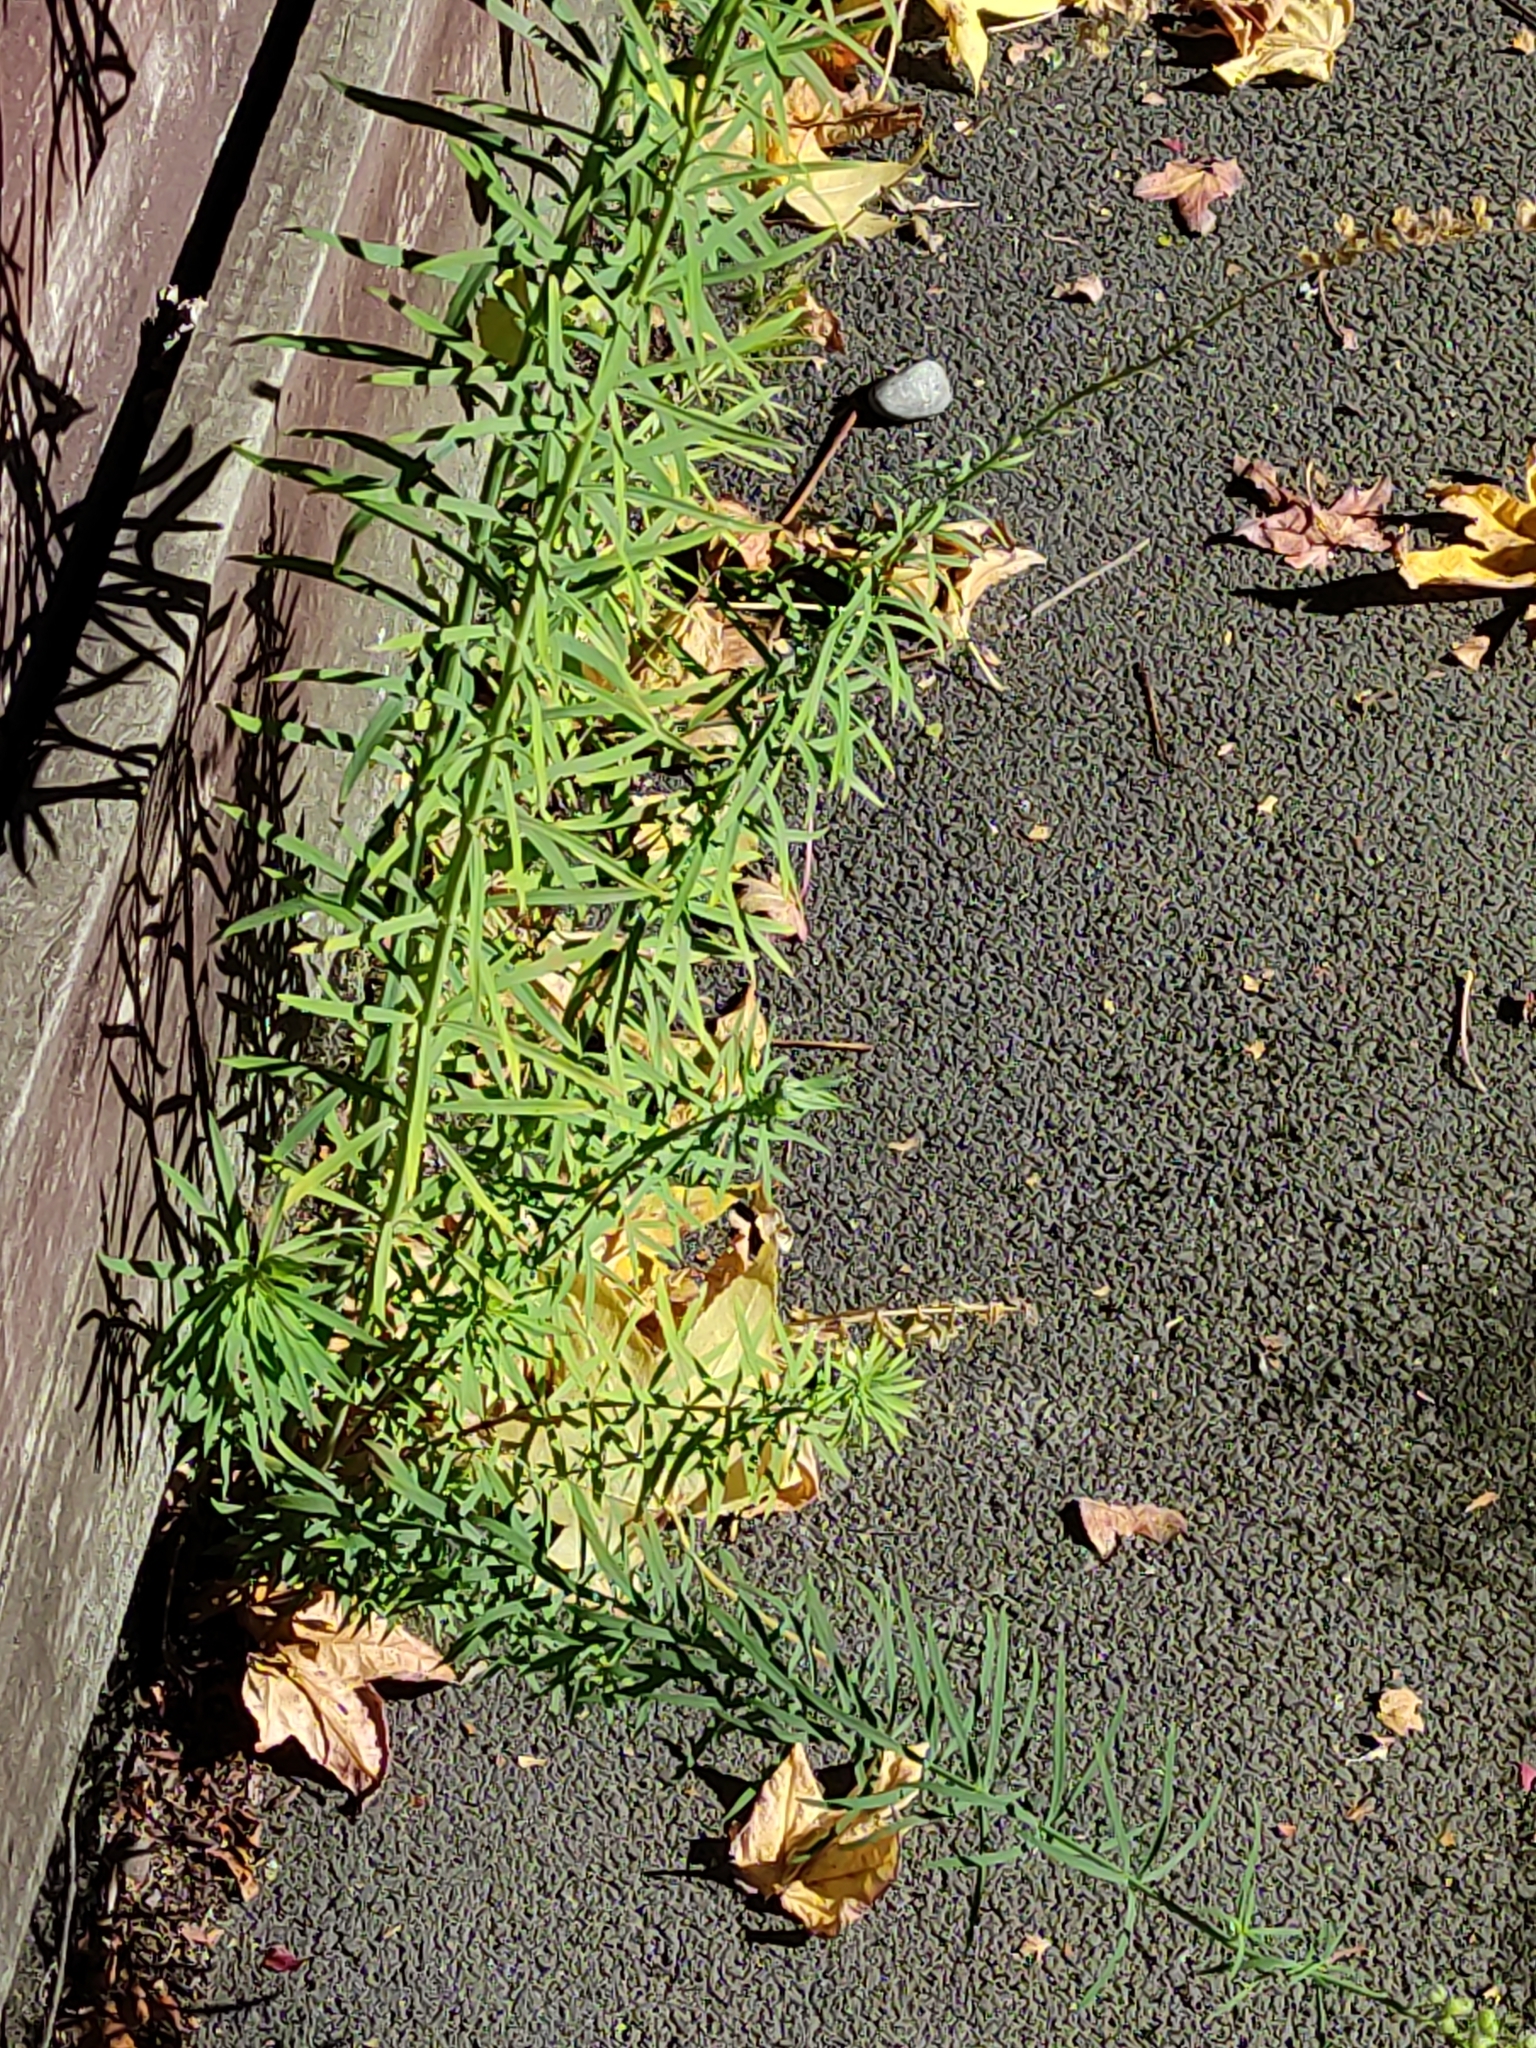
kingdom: Plantae
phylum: Tracheophyta
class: Magnoliopsida
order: Lamiales
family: Plantaginaceae
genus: Linaria
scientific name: Linaria purpurea
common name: Purple toadflax
